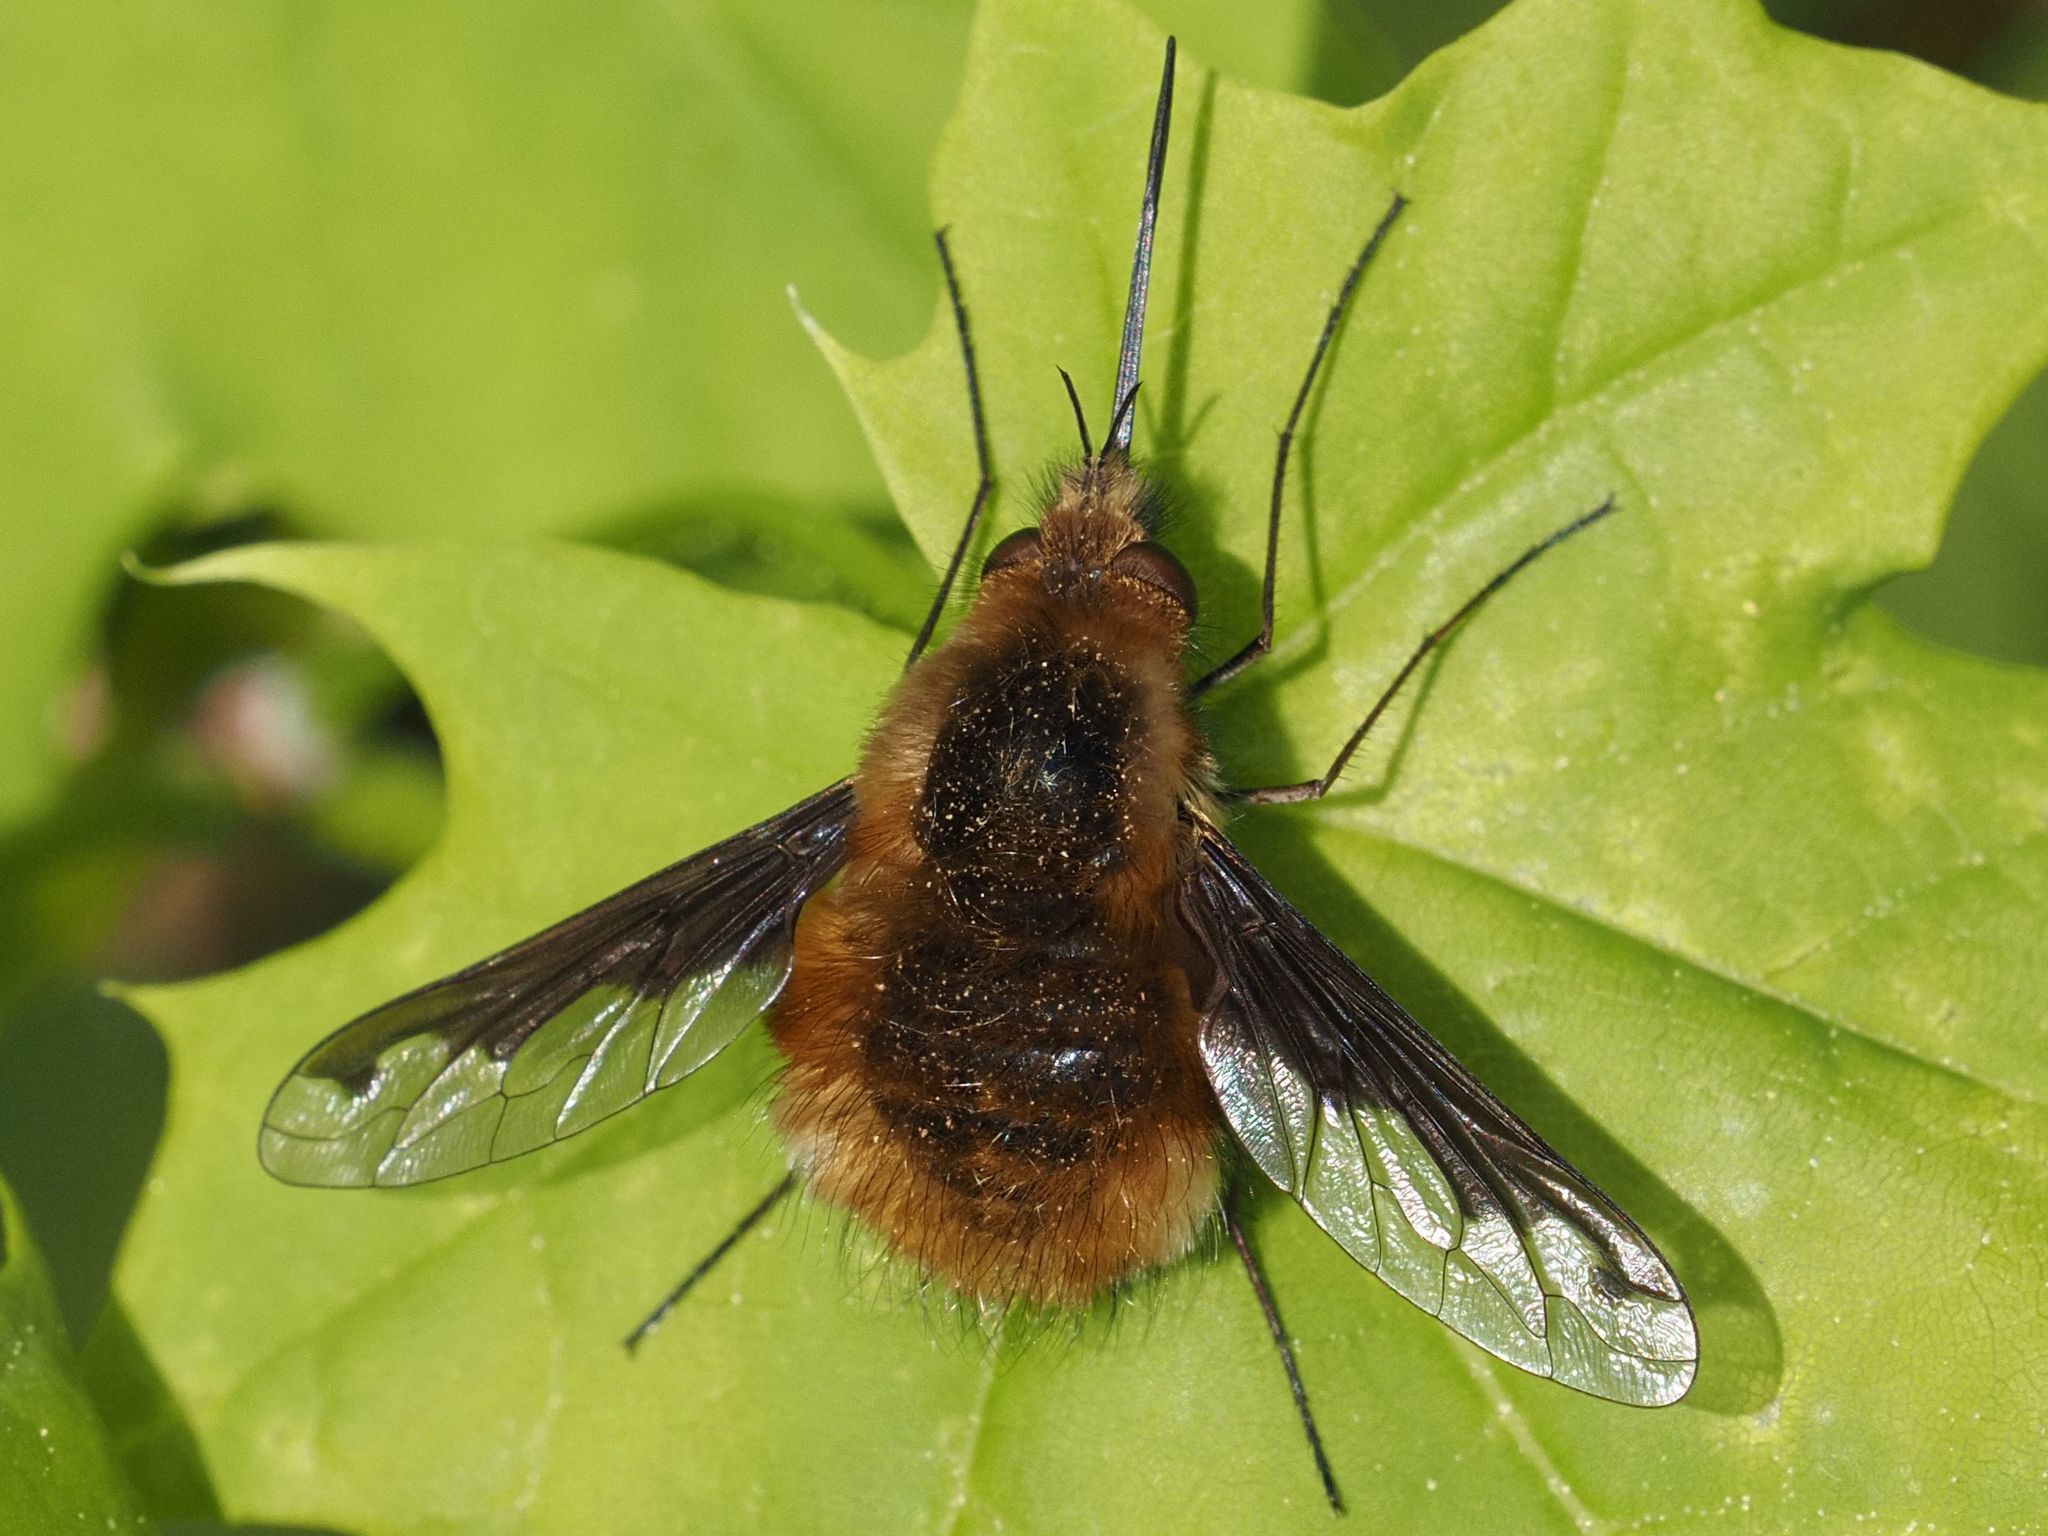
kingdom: Animalia
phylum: Arthropoda
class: Insecta
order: Diptera
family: Bombyliidae
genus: Bombylius
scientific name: Bombylius major
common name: Bee fly
